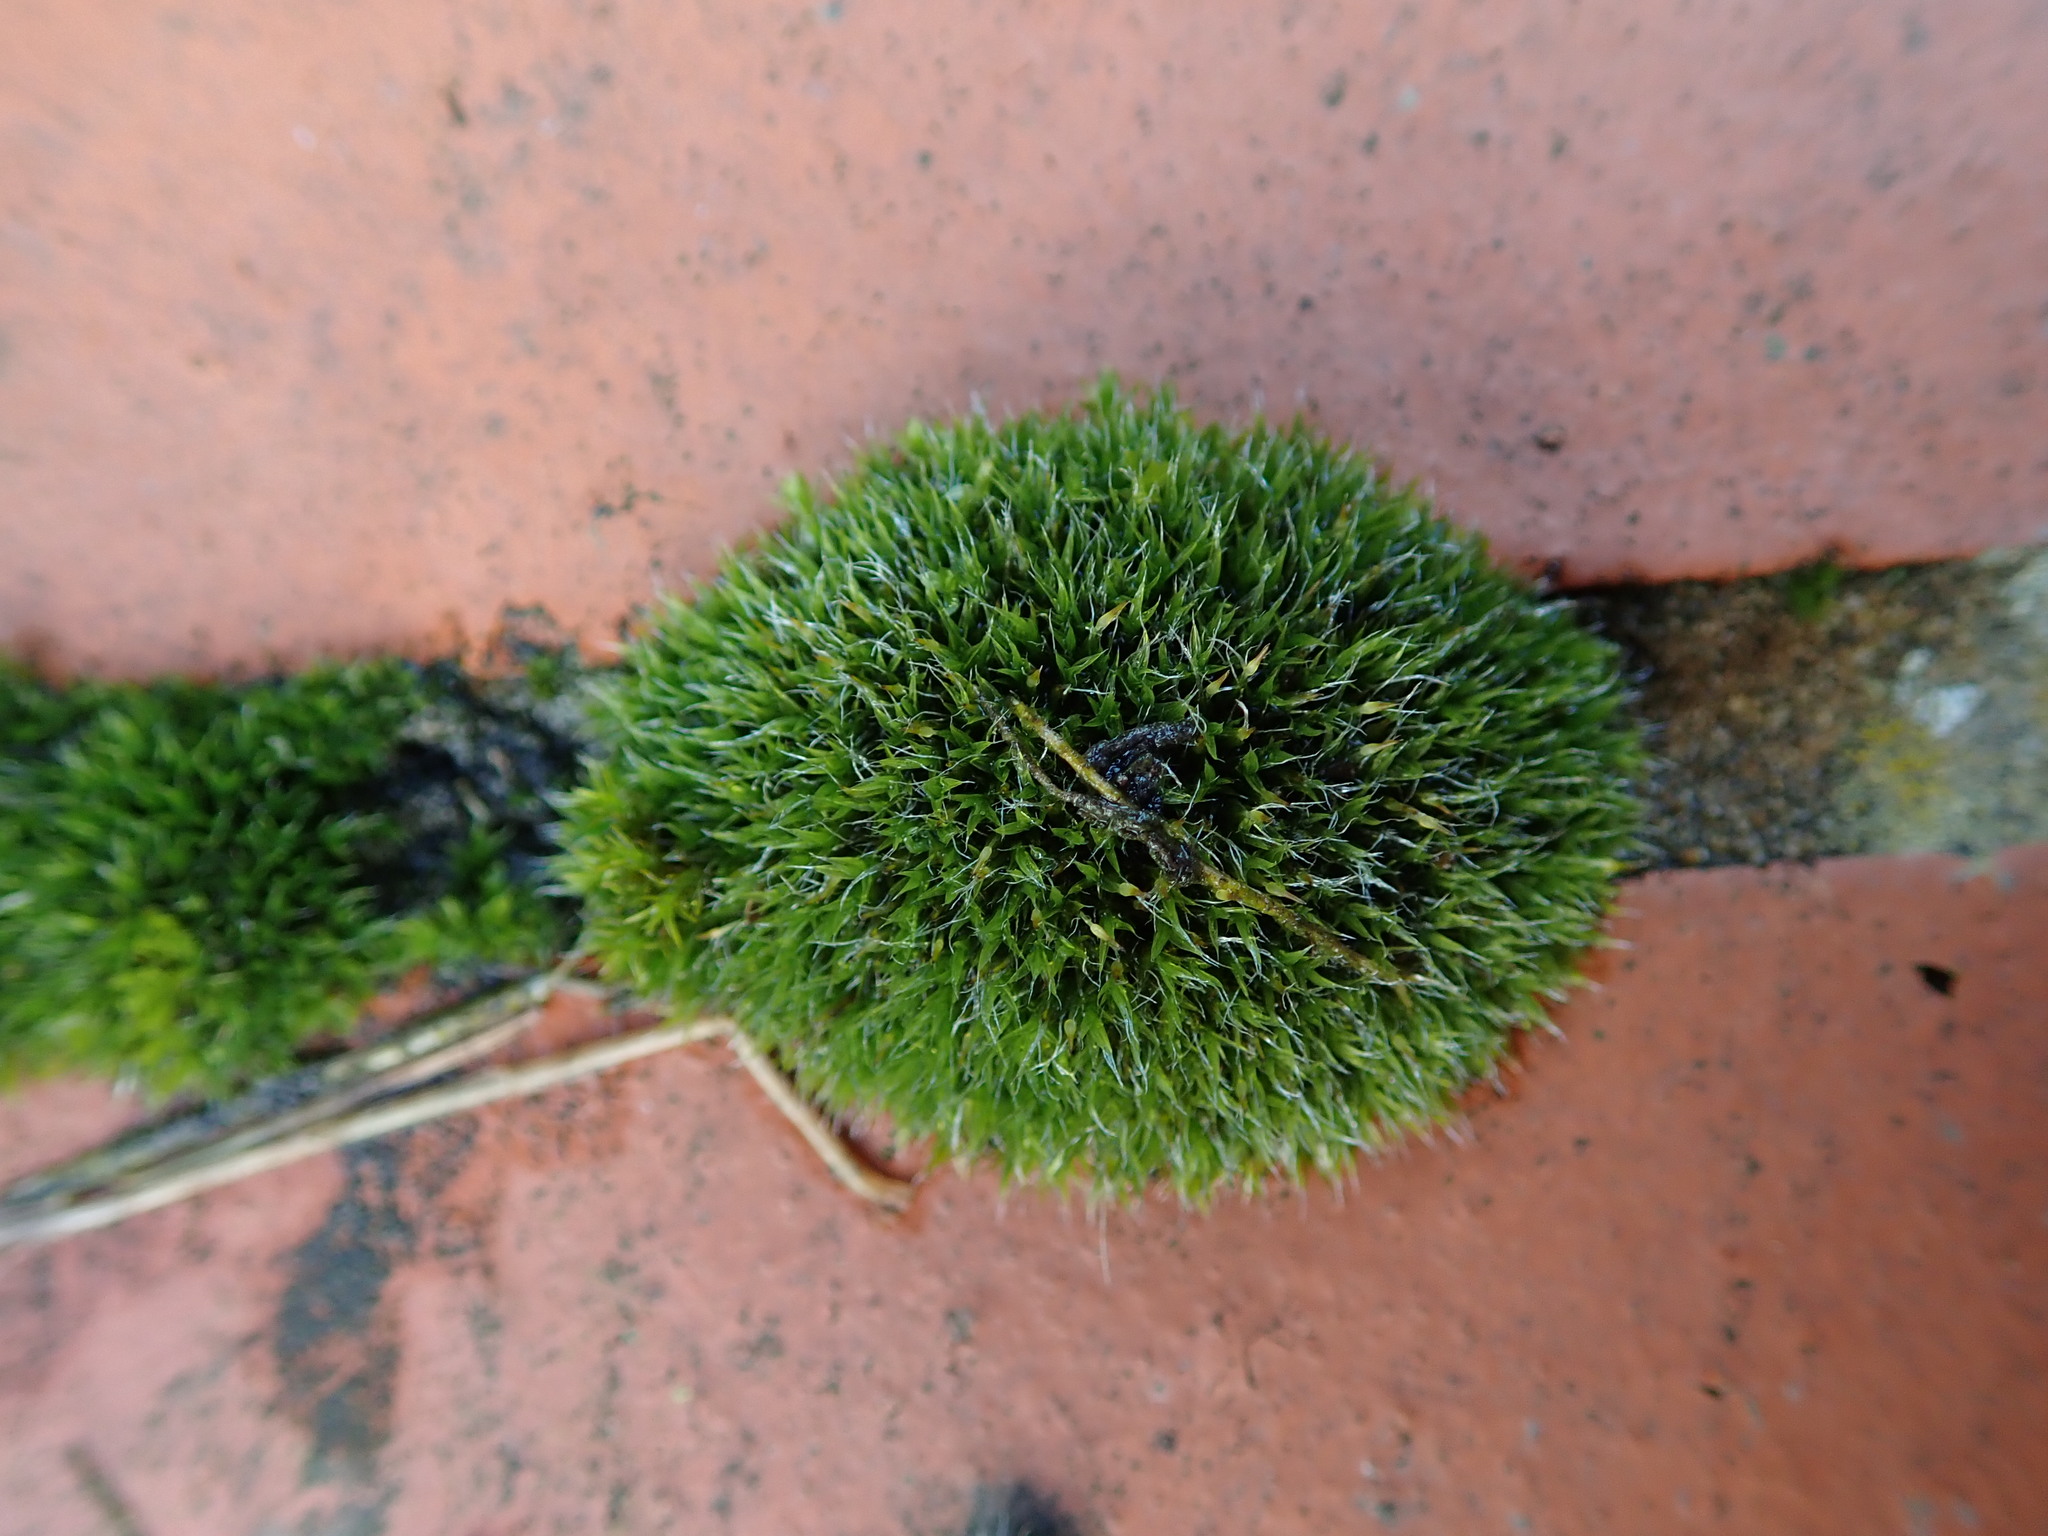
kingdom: Plantae
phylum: Bryophyta
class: Bryopsida
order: Grimmiales
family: Grimmiaceae
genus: Grimmia
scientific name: Grimmia pulvinata
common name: Grey-cushioned grimmia
